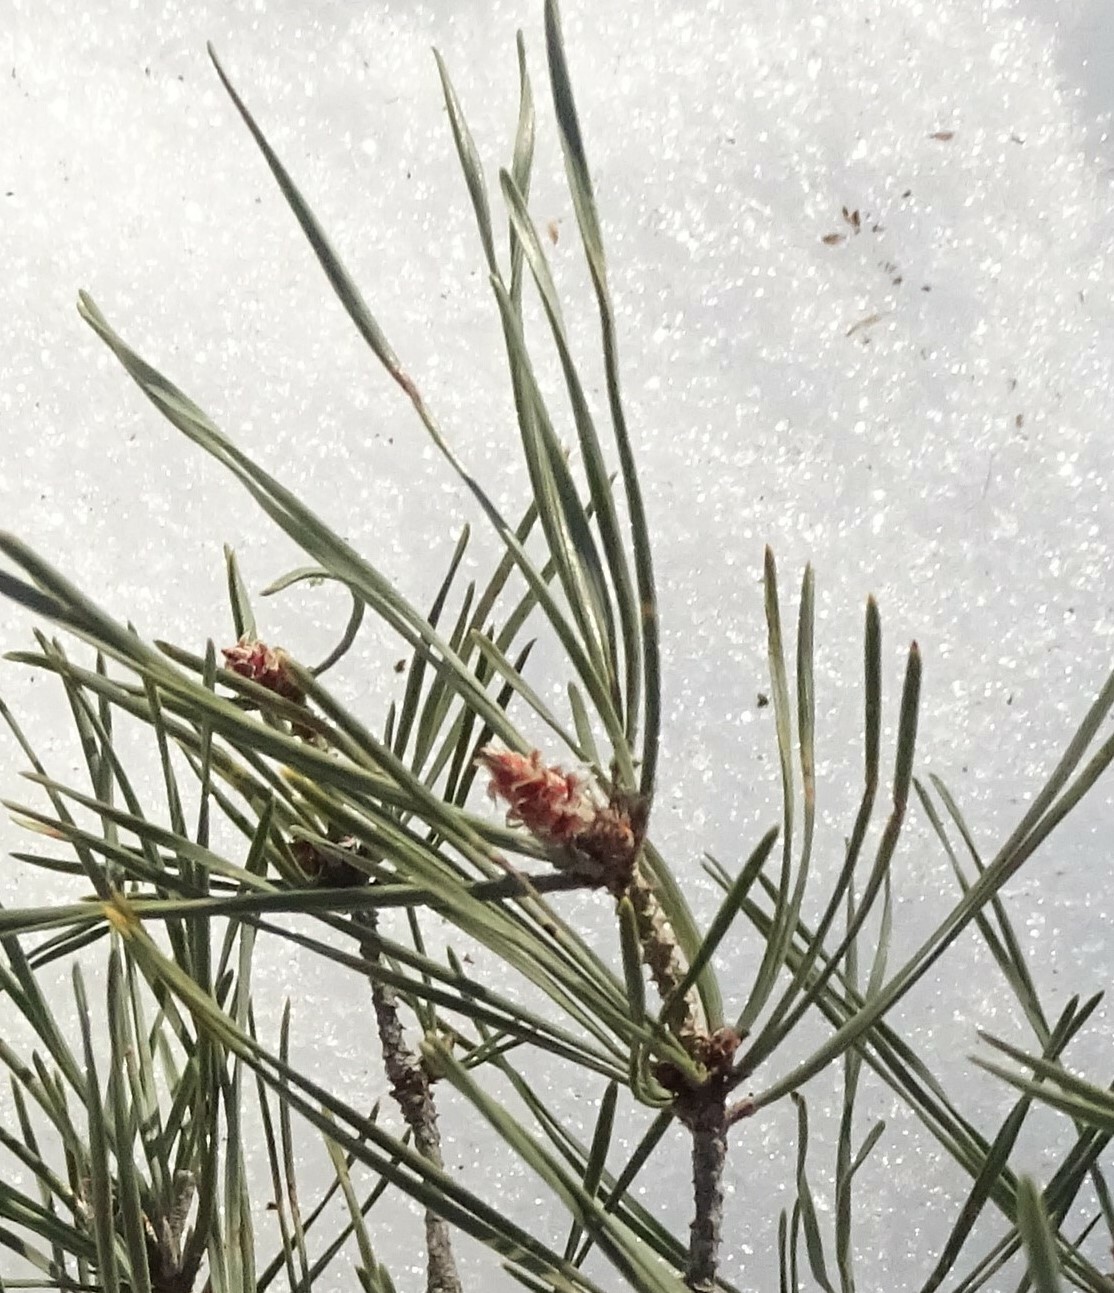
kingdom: Plantae
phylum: Tracheophyta
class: Pinopsida
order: Pinales
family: Pinaceae
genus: Pinus
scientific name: Pinus resinosa
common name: Norway pine
